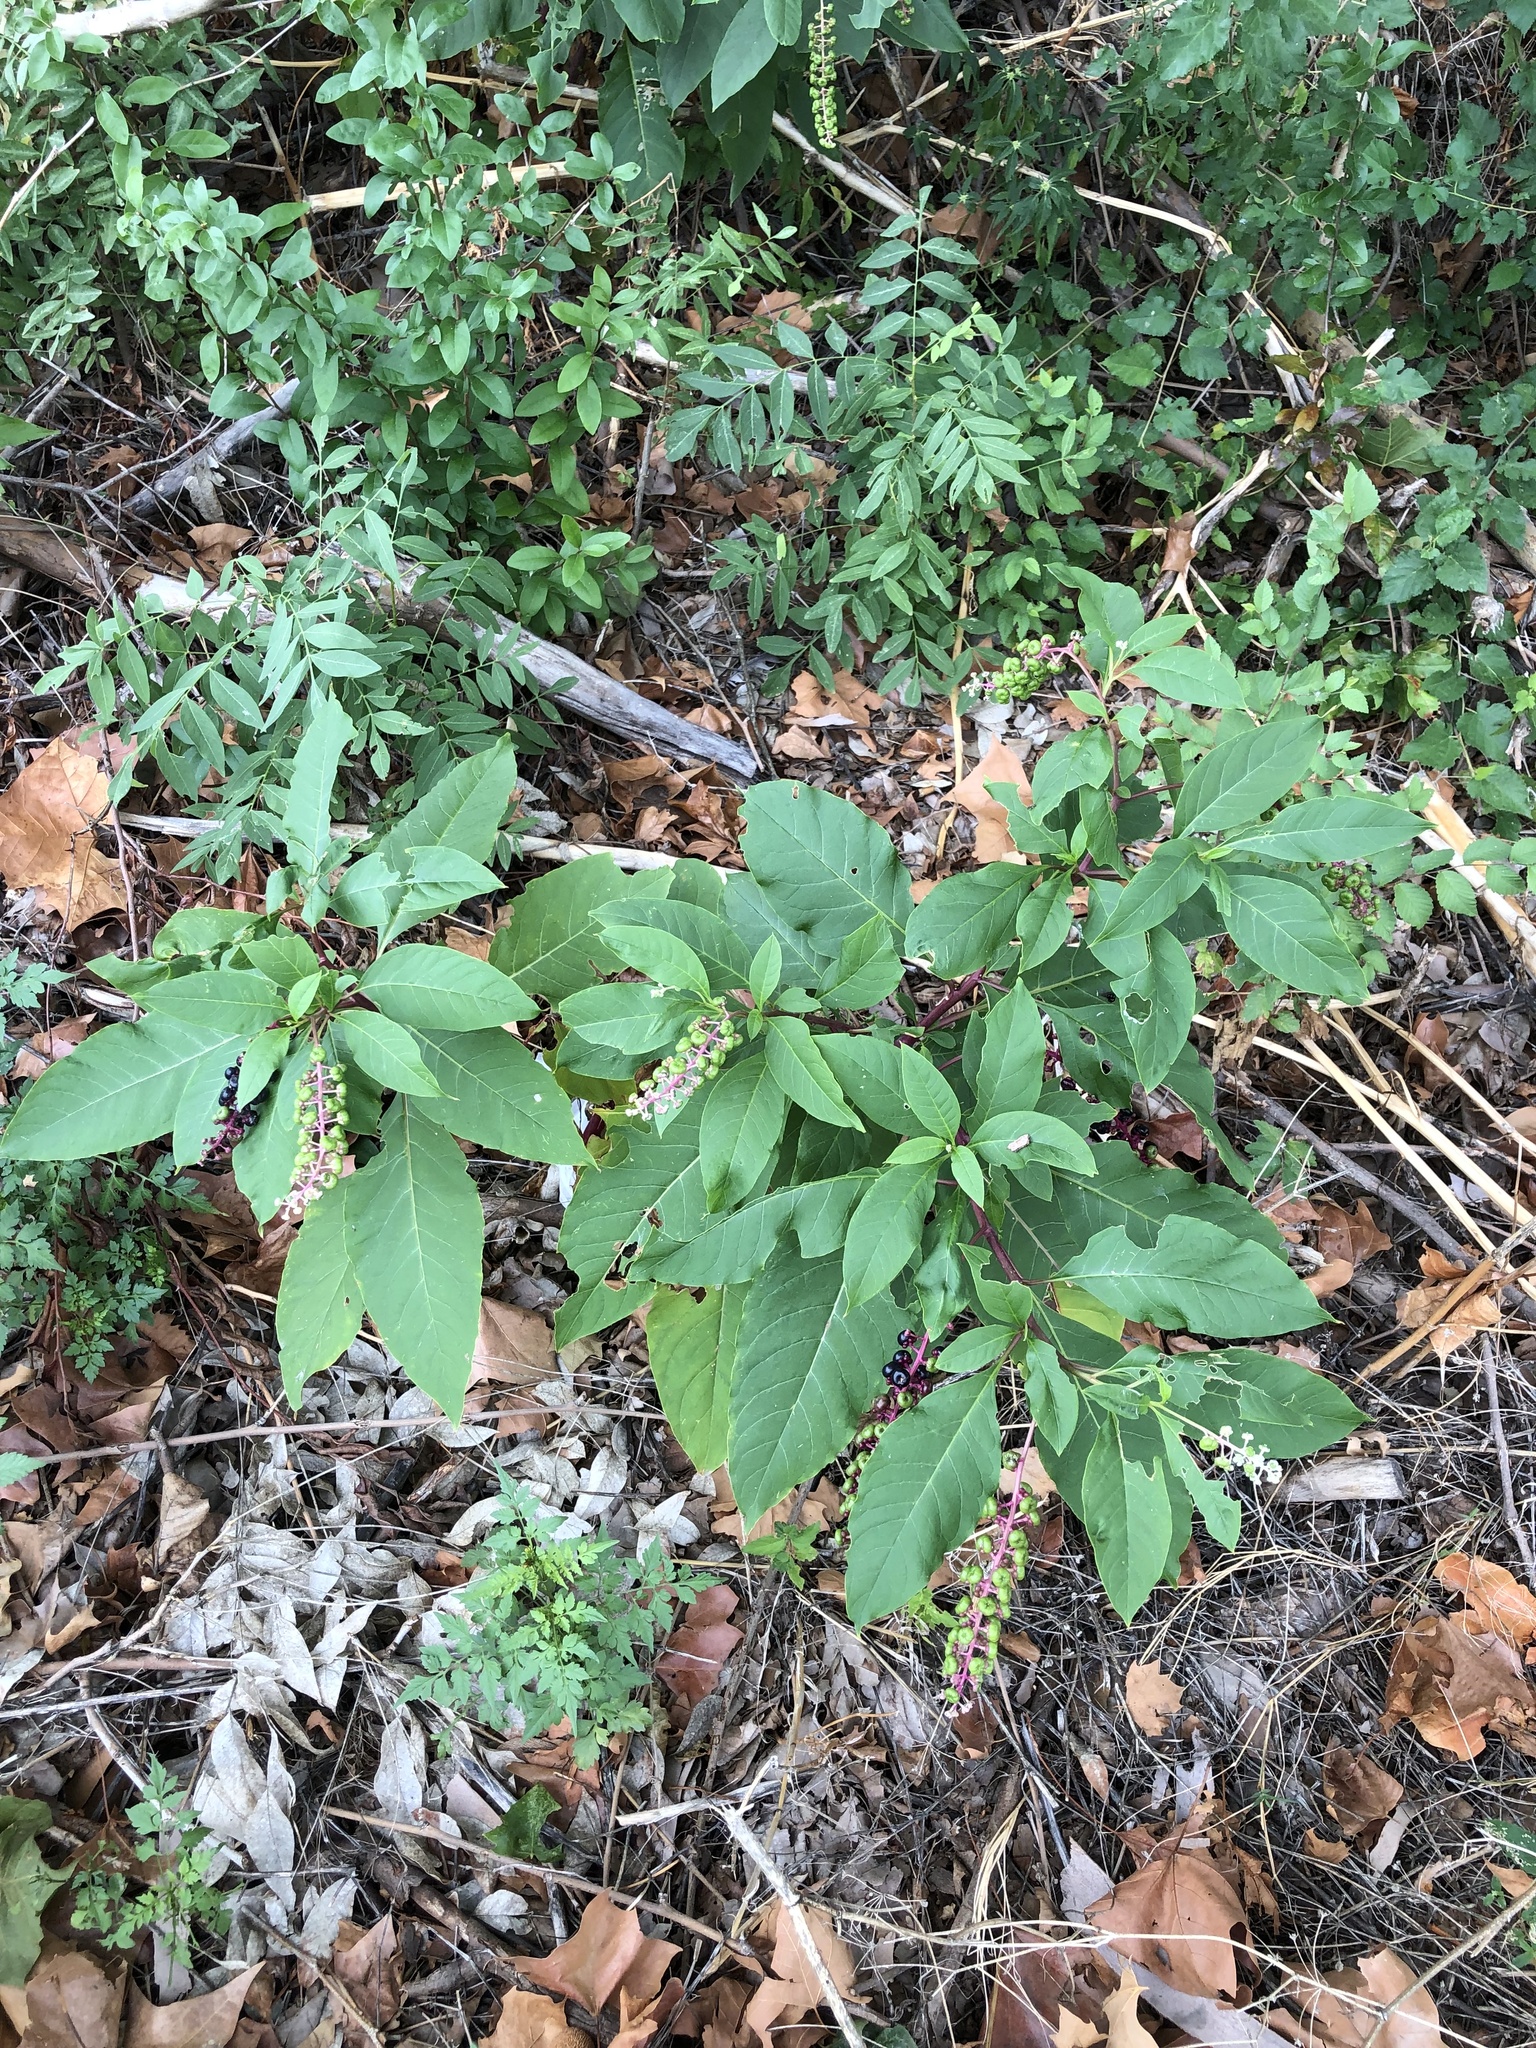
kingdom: Plantae
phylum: Tracheophyta
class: Magnoliopsida
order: Caryophyllales
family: Phytolaccaceae
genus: Phytolacca
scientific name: Phytolacca americana
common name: American pokeweed
